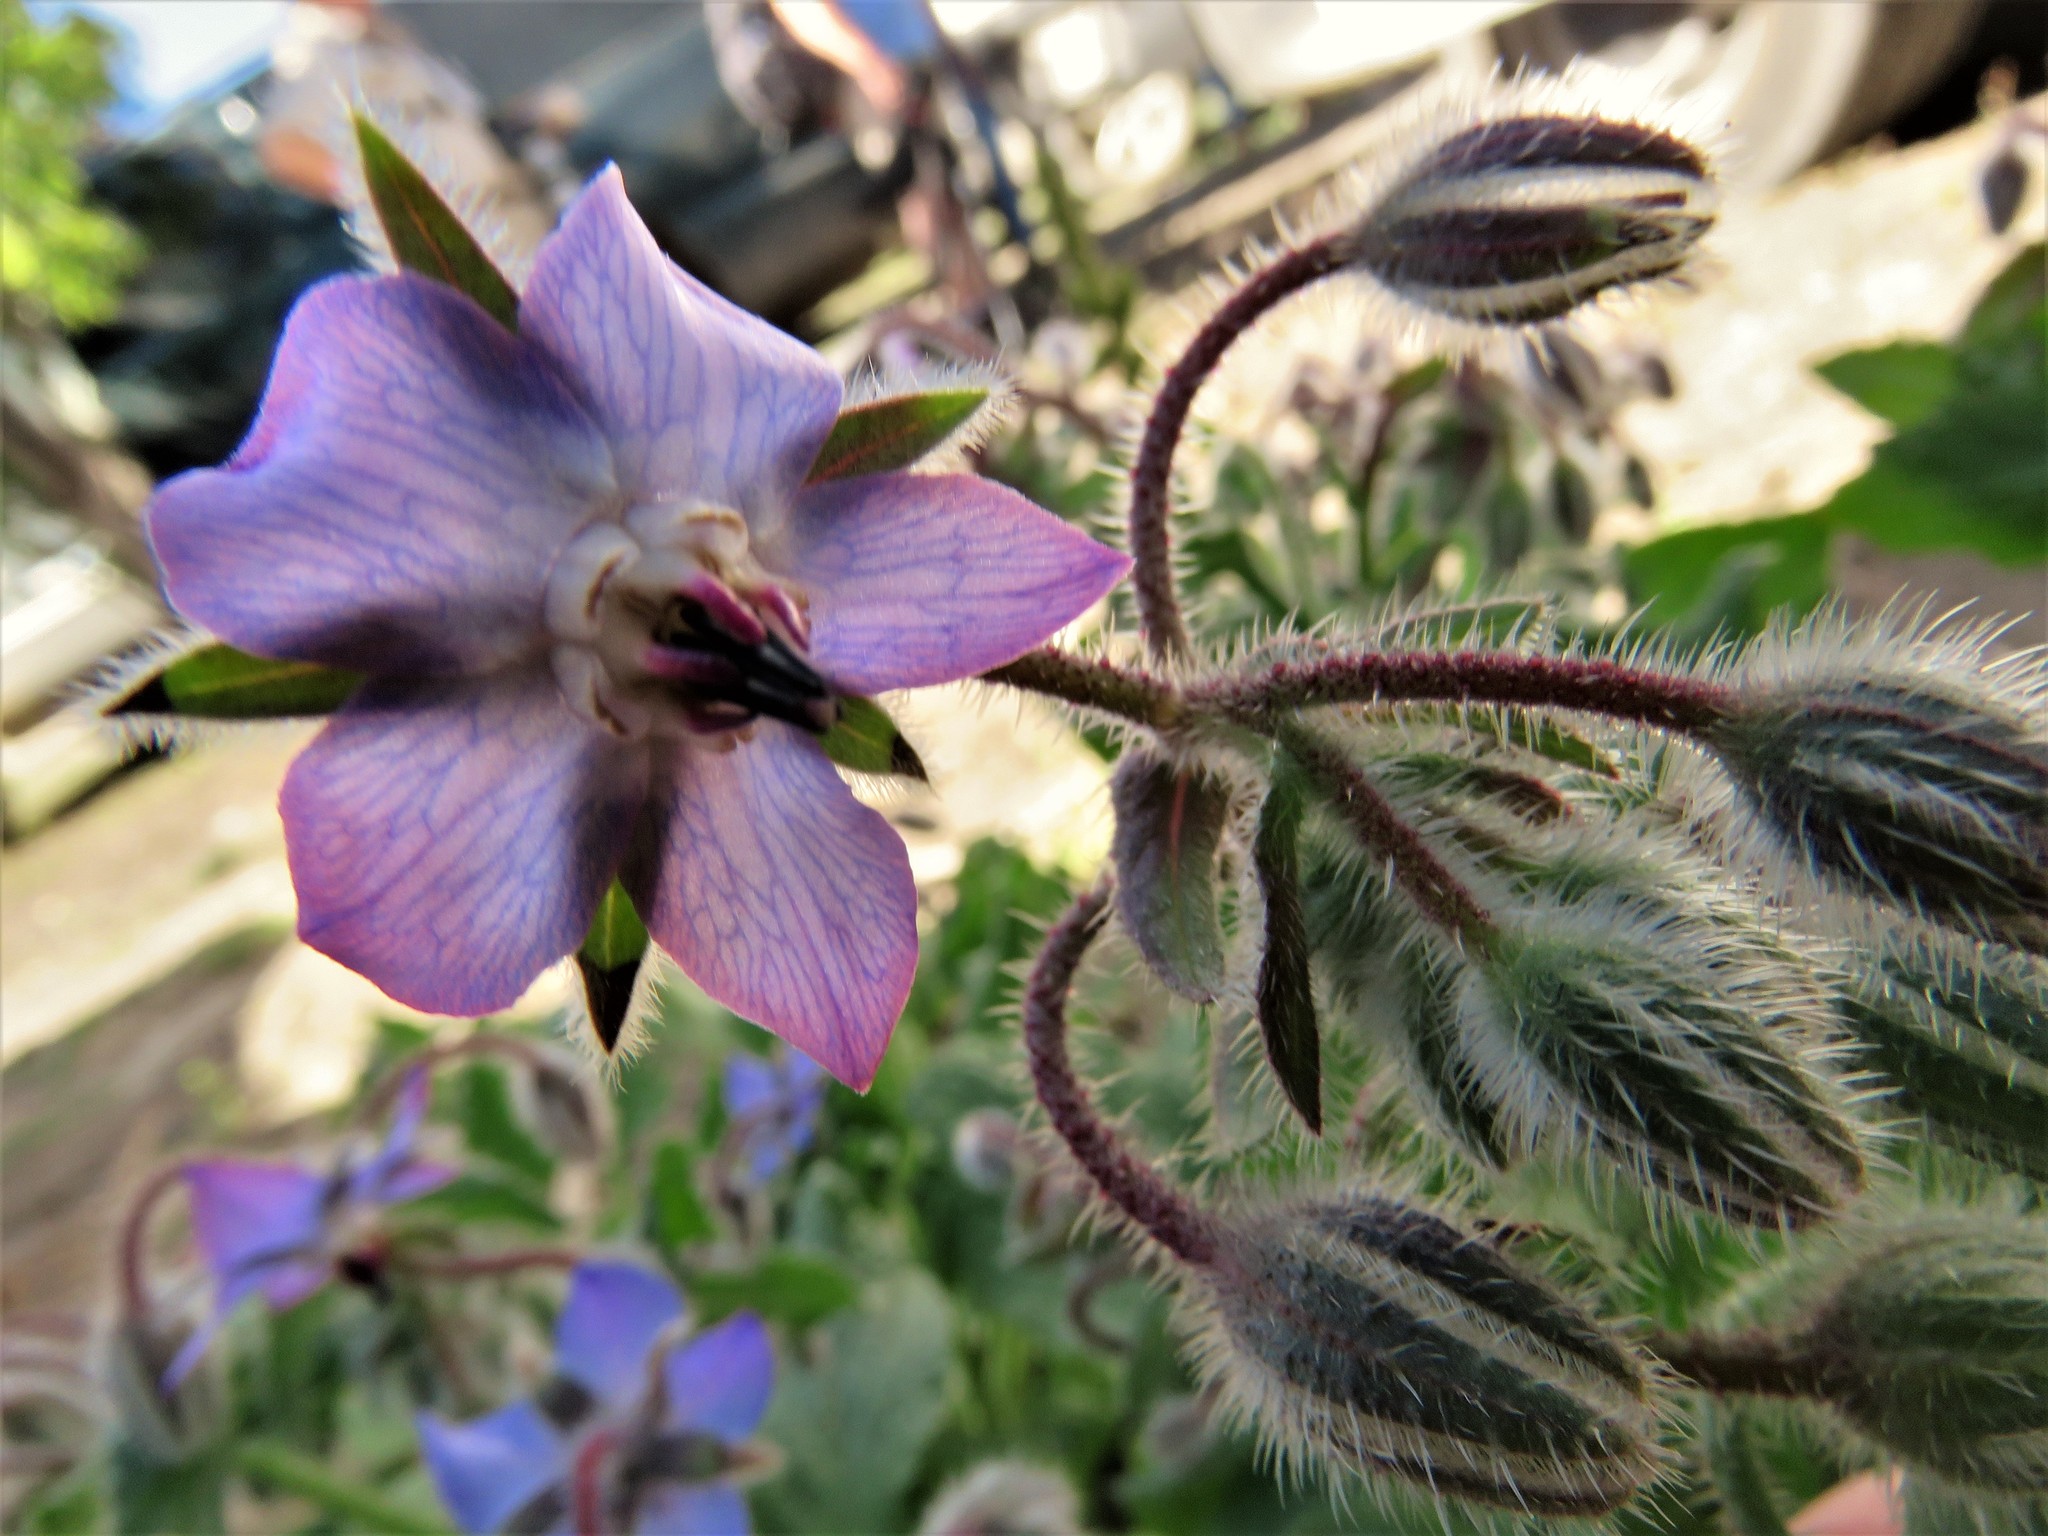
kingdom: Plantae
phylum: Tracheophyta
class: Magnoliopsida
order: Boraginales
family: Boraginaceae
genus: Borago
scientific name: Borago officinalis
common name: Borage
